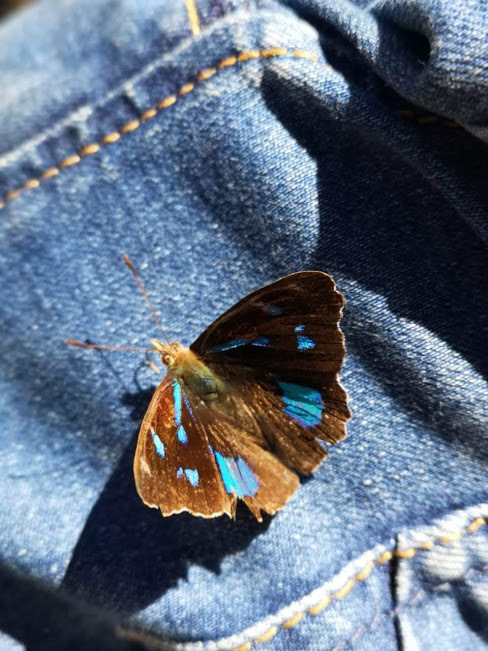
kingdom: Animalia
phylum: Arthropoda
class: Insecta
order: Lepidoptera
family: Nymphalidae
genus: Perisama
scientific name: Perisama campaspe
